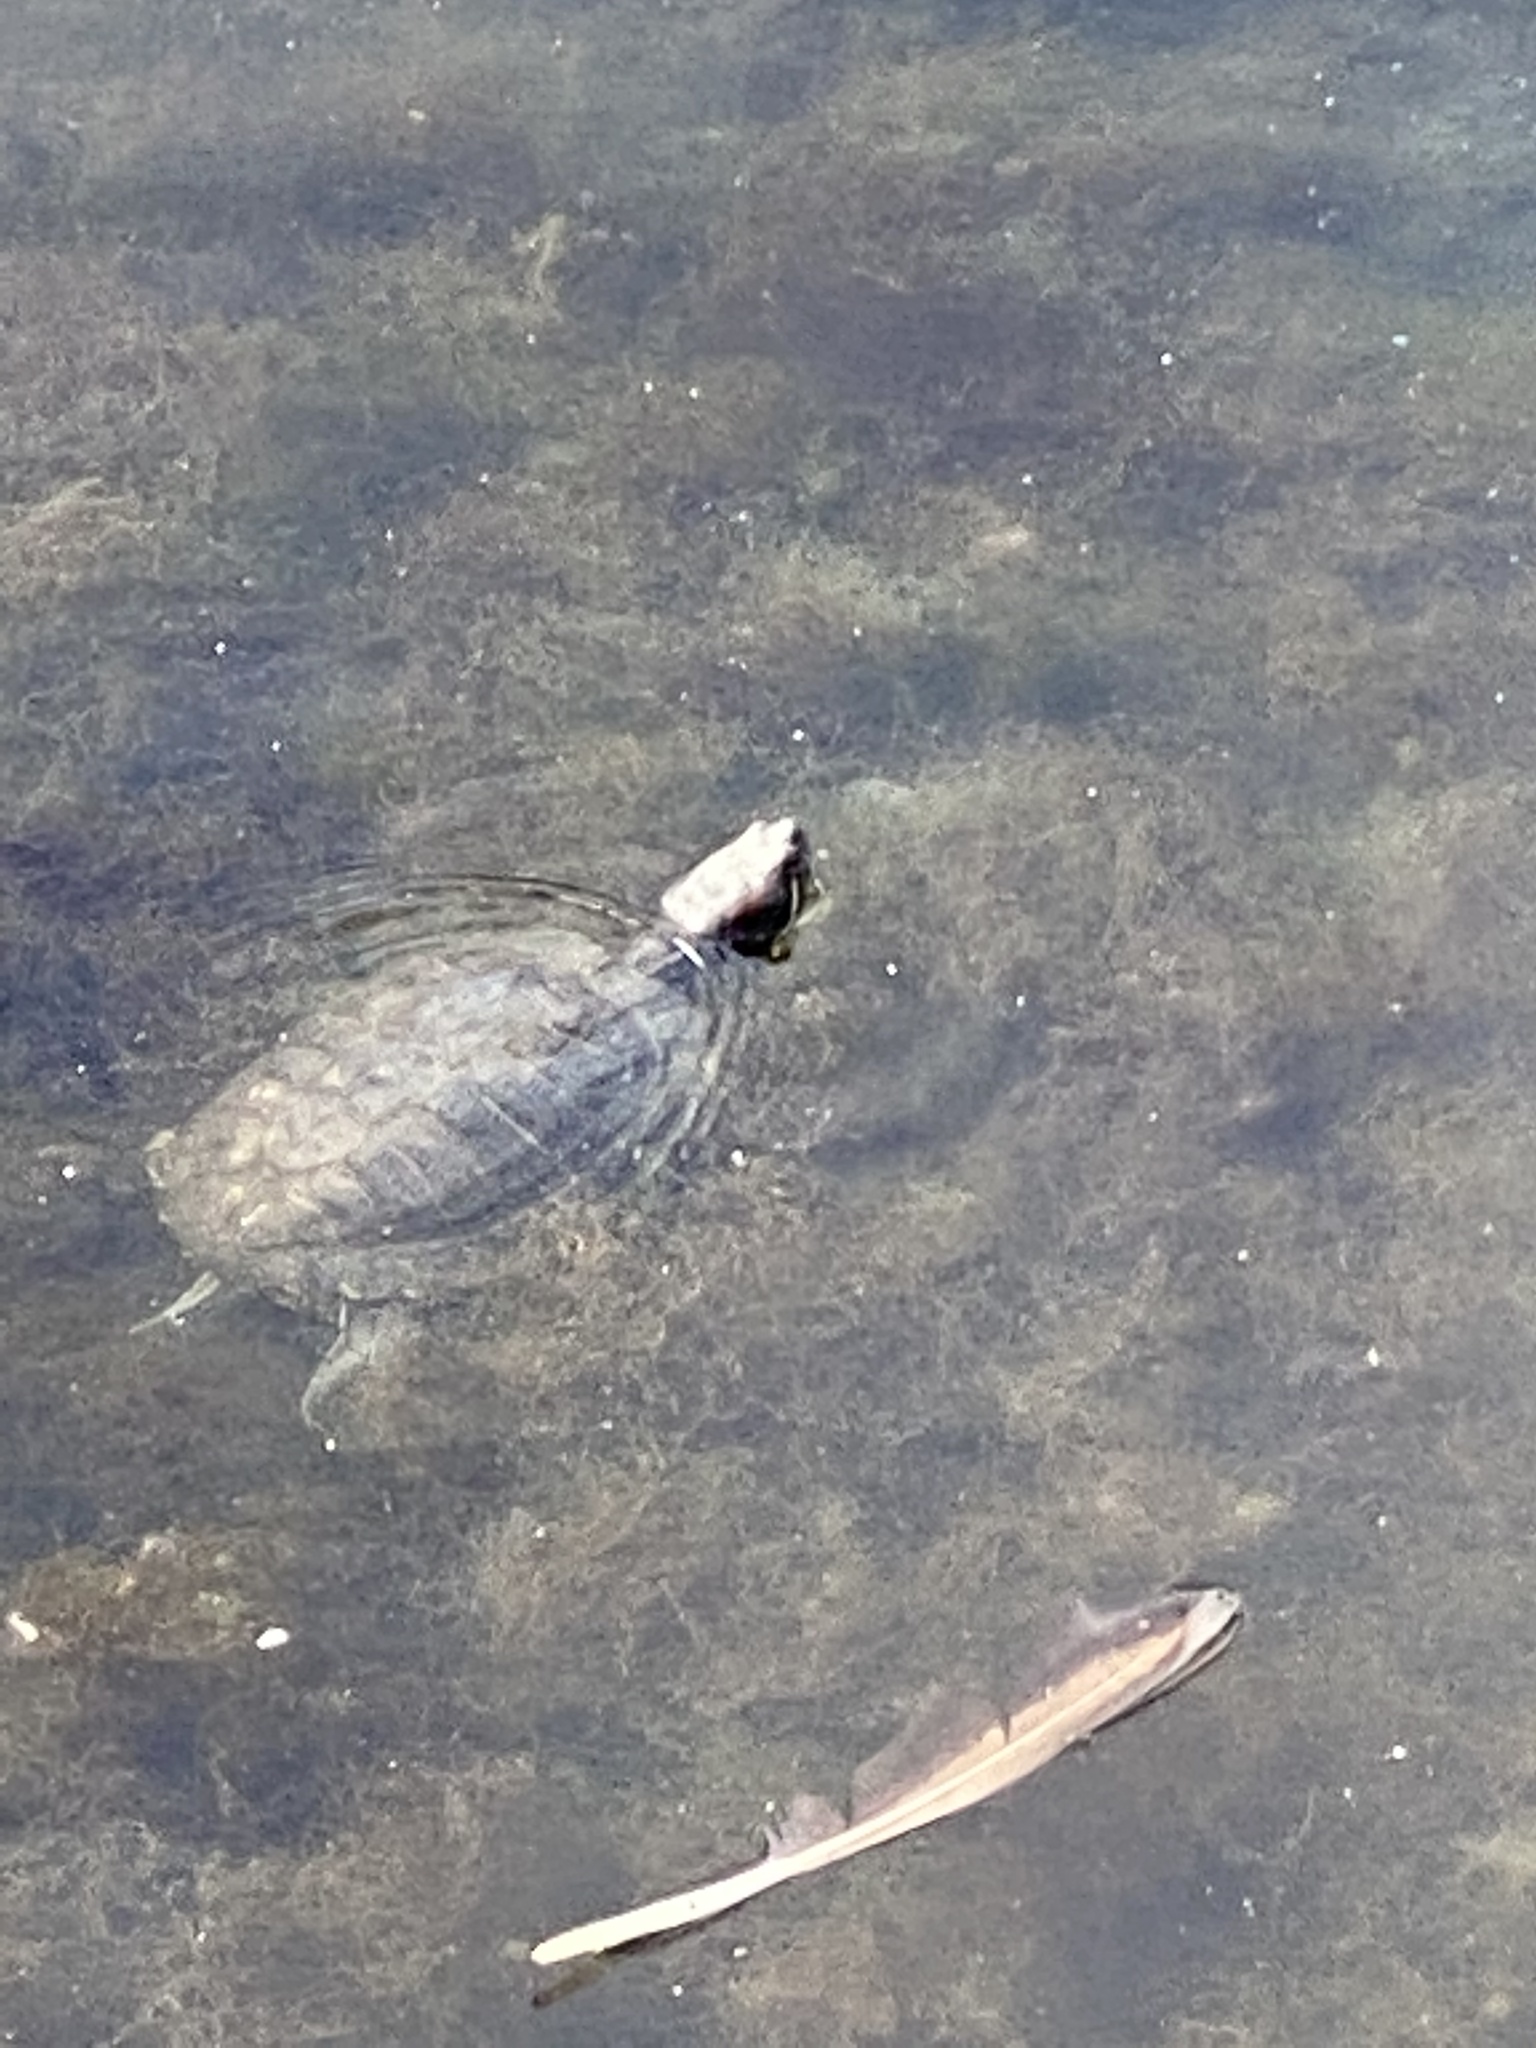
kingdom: Animalia
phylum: Chordata
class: Testudines
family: Emydidae
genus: Trachemys
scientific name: Trachemys scripta
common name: Slider
